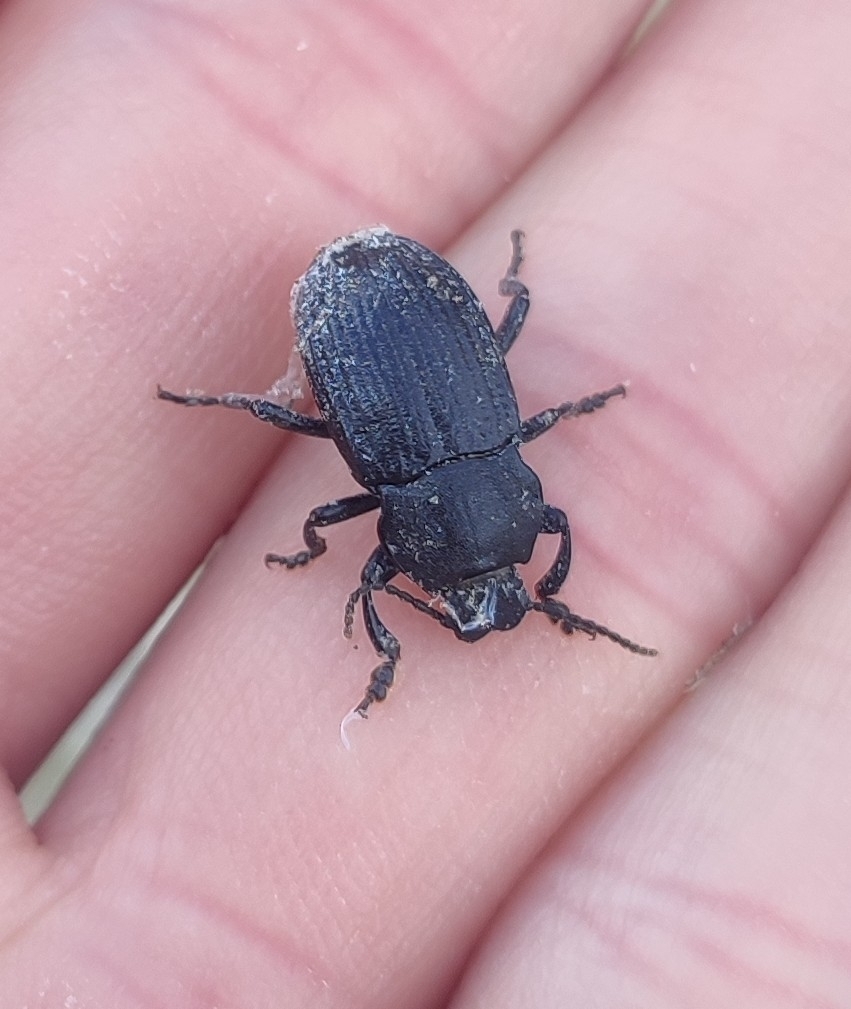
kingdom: Animalia
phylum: Arthropoda
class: Insecta
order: Coleoptera
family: Tenebrionidae
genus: Dendarus
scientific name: Dendarus coarcticollis
